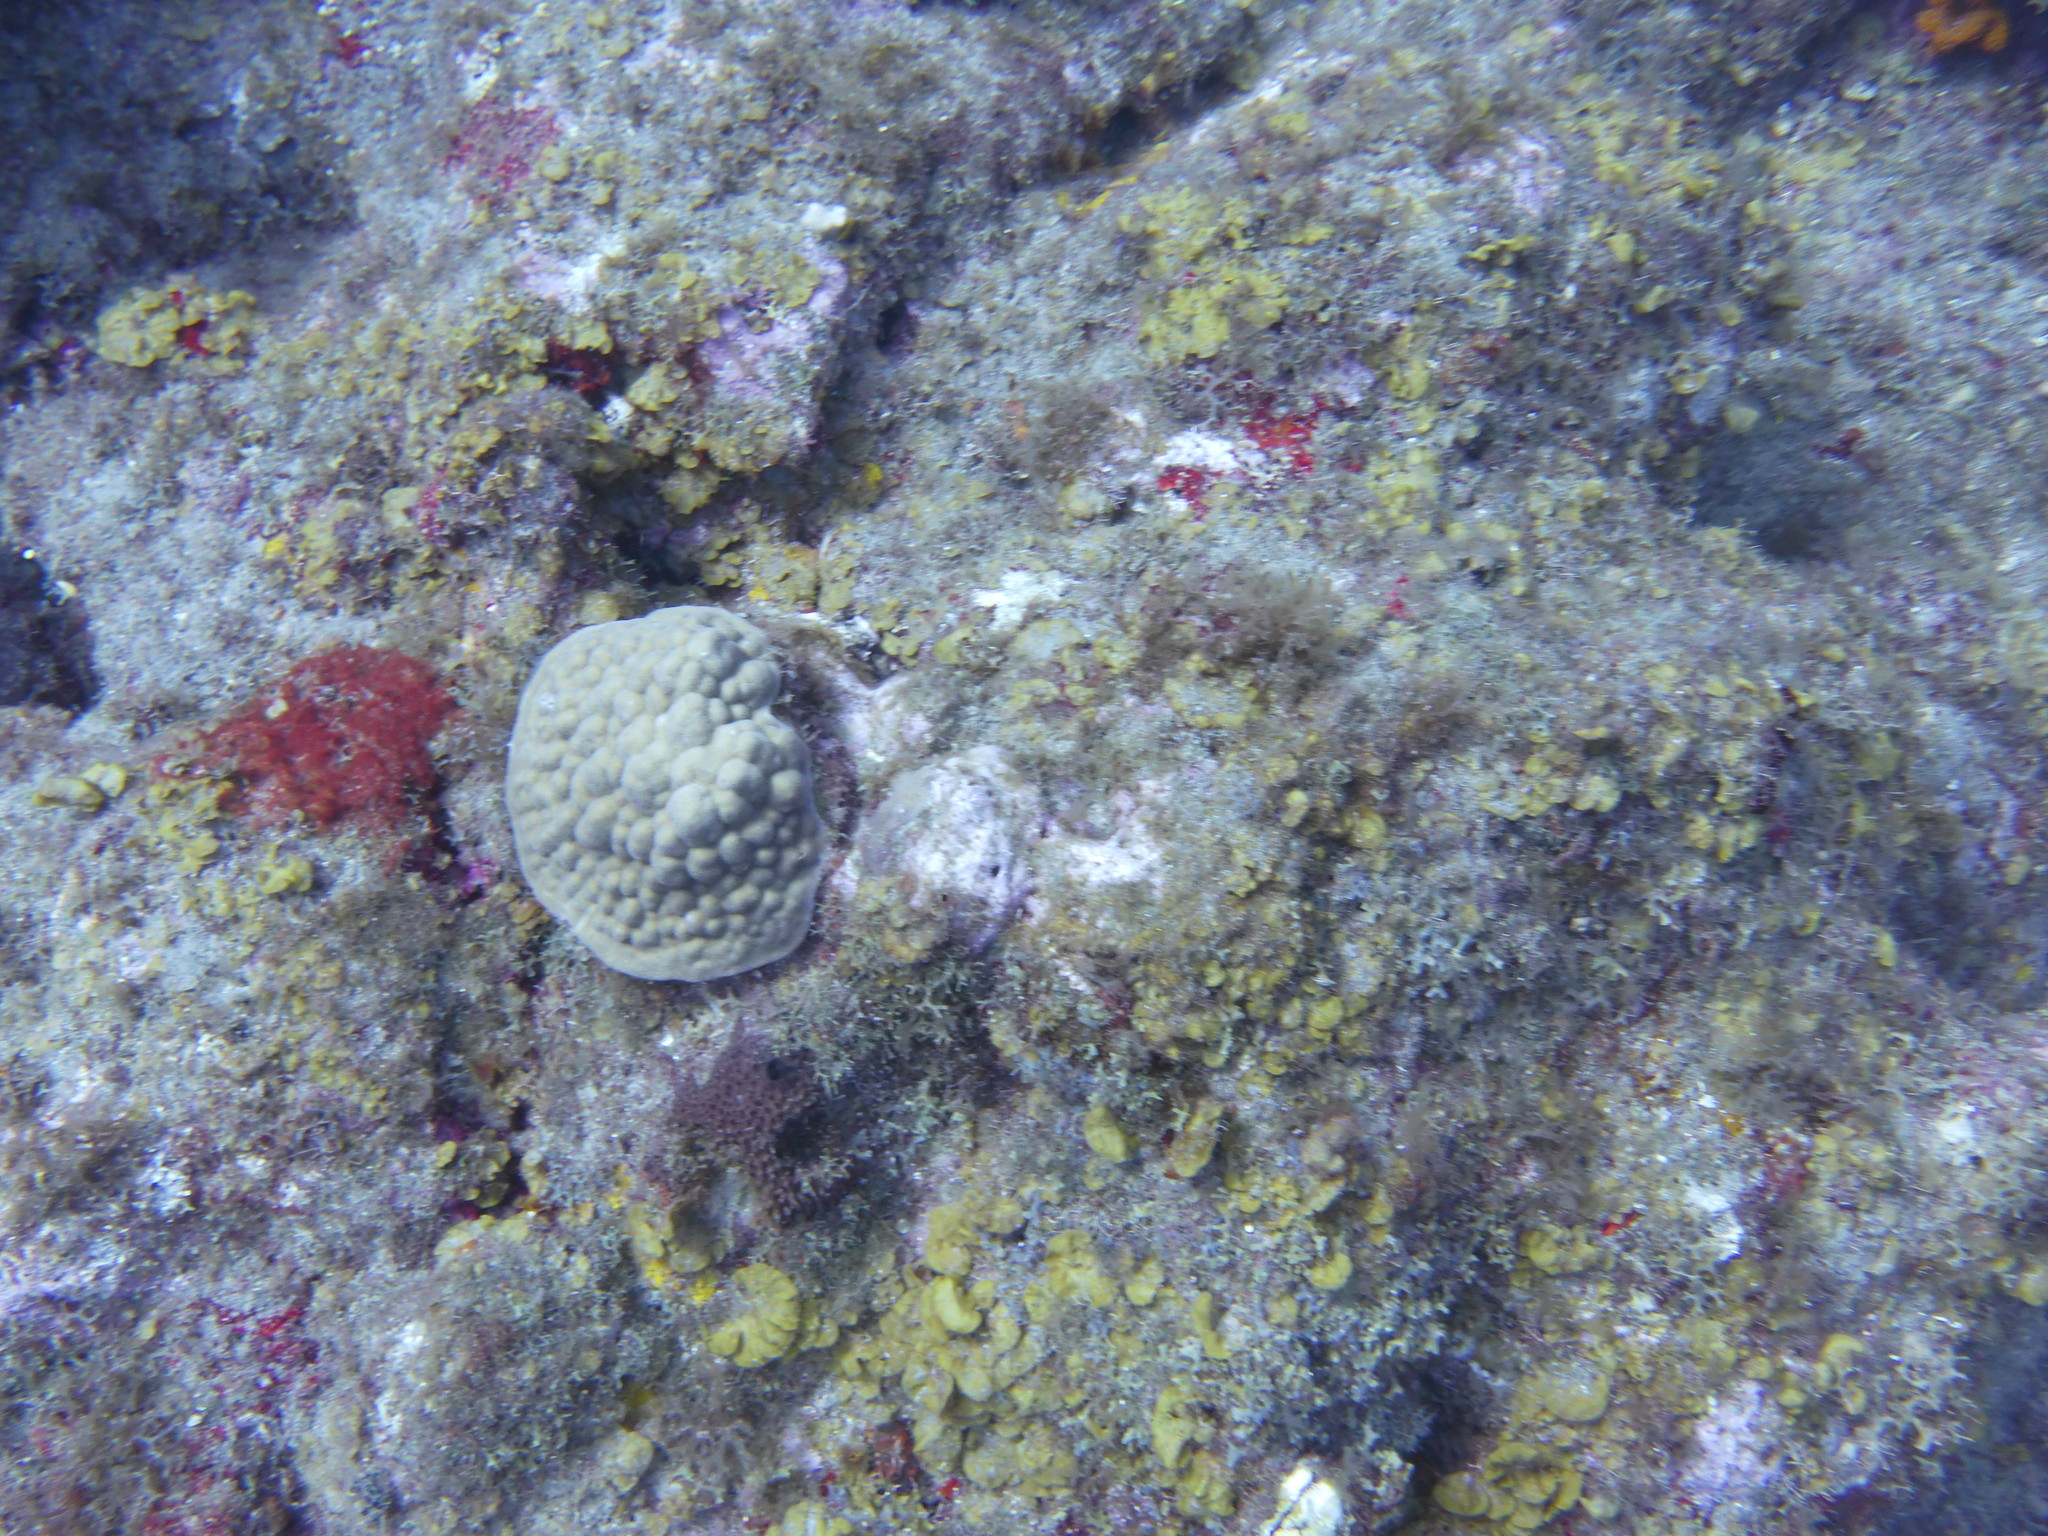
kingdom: Animalia
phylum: Cnidaria
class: Anthozoa
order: Scleractinia
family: Poritidae
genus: Porites
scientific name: Porites astreoides
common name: Mustard hill coral
